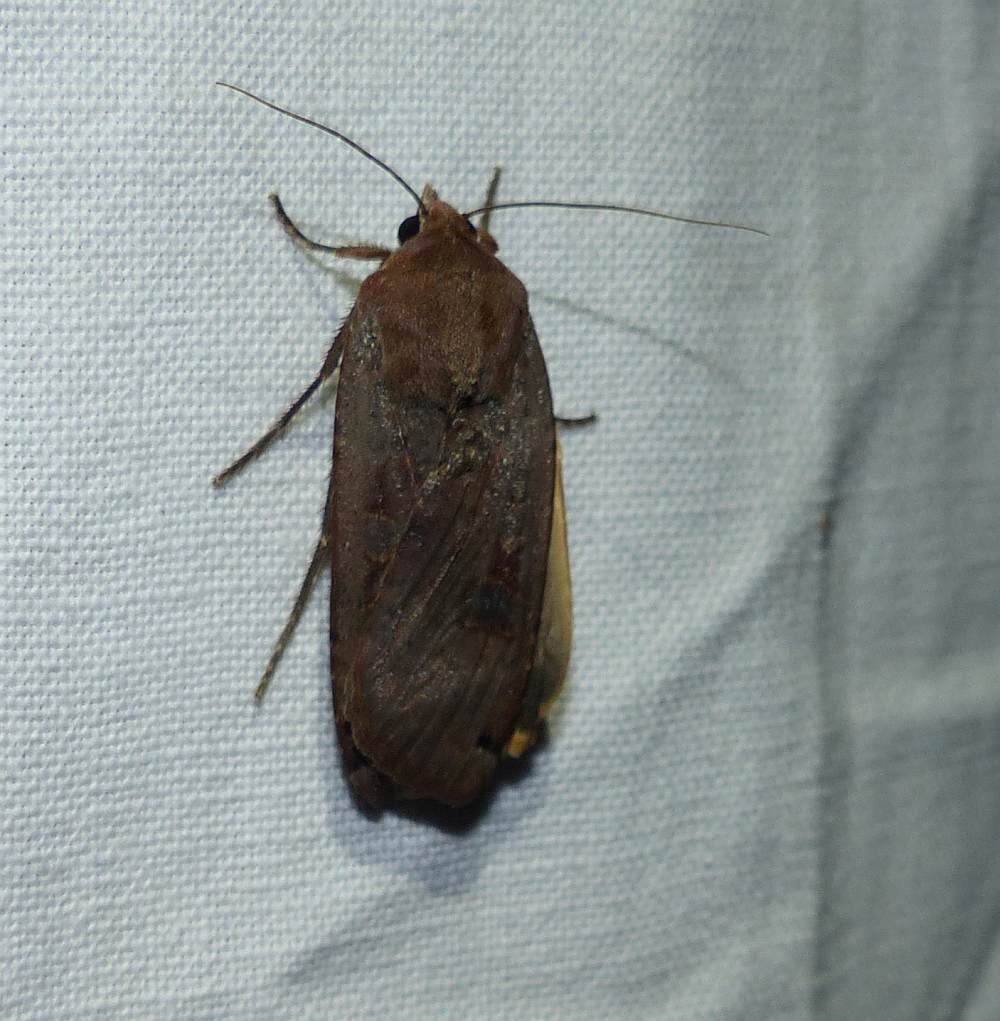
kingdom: Animalia
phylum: Arthropoda
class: Insecta
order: Lepidoptera
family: Noctuidae
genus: Noctua
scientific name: Noctua pronuba
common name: Large yellow underwing
